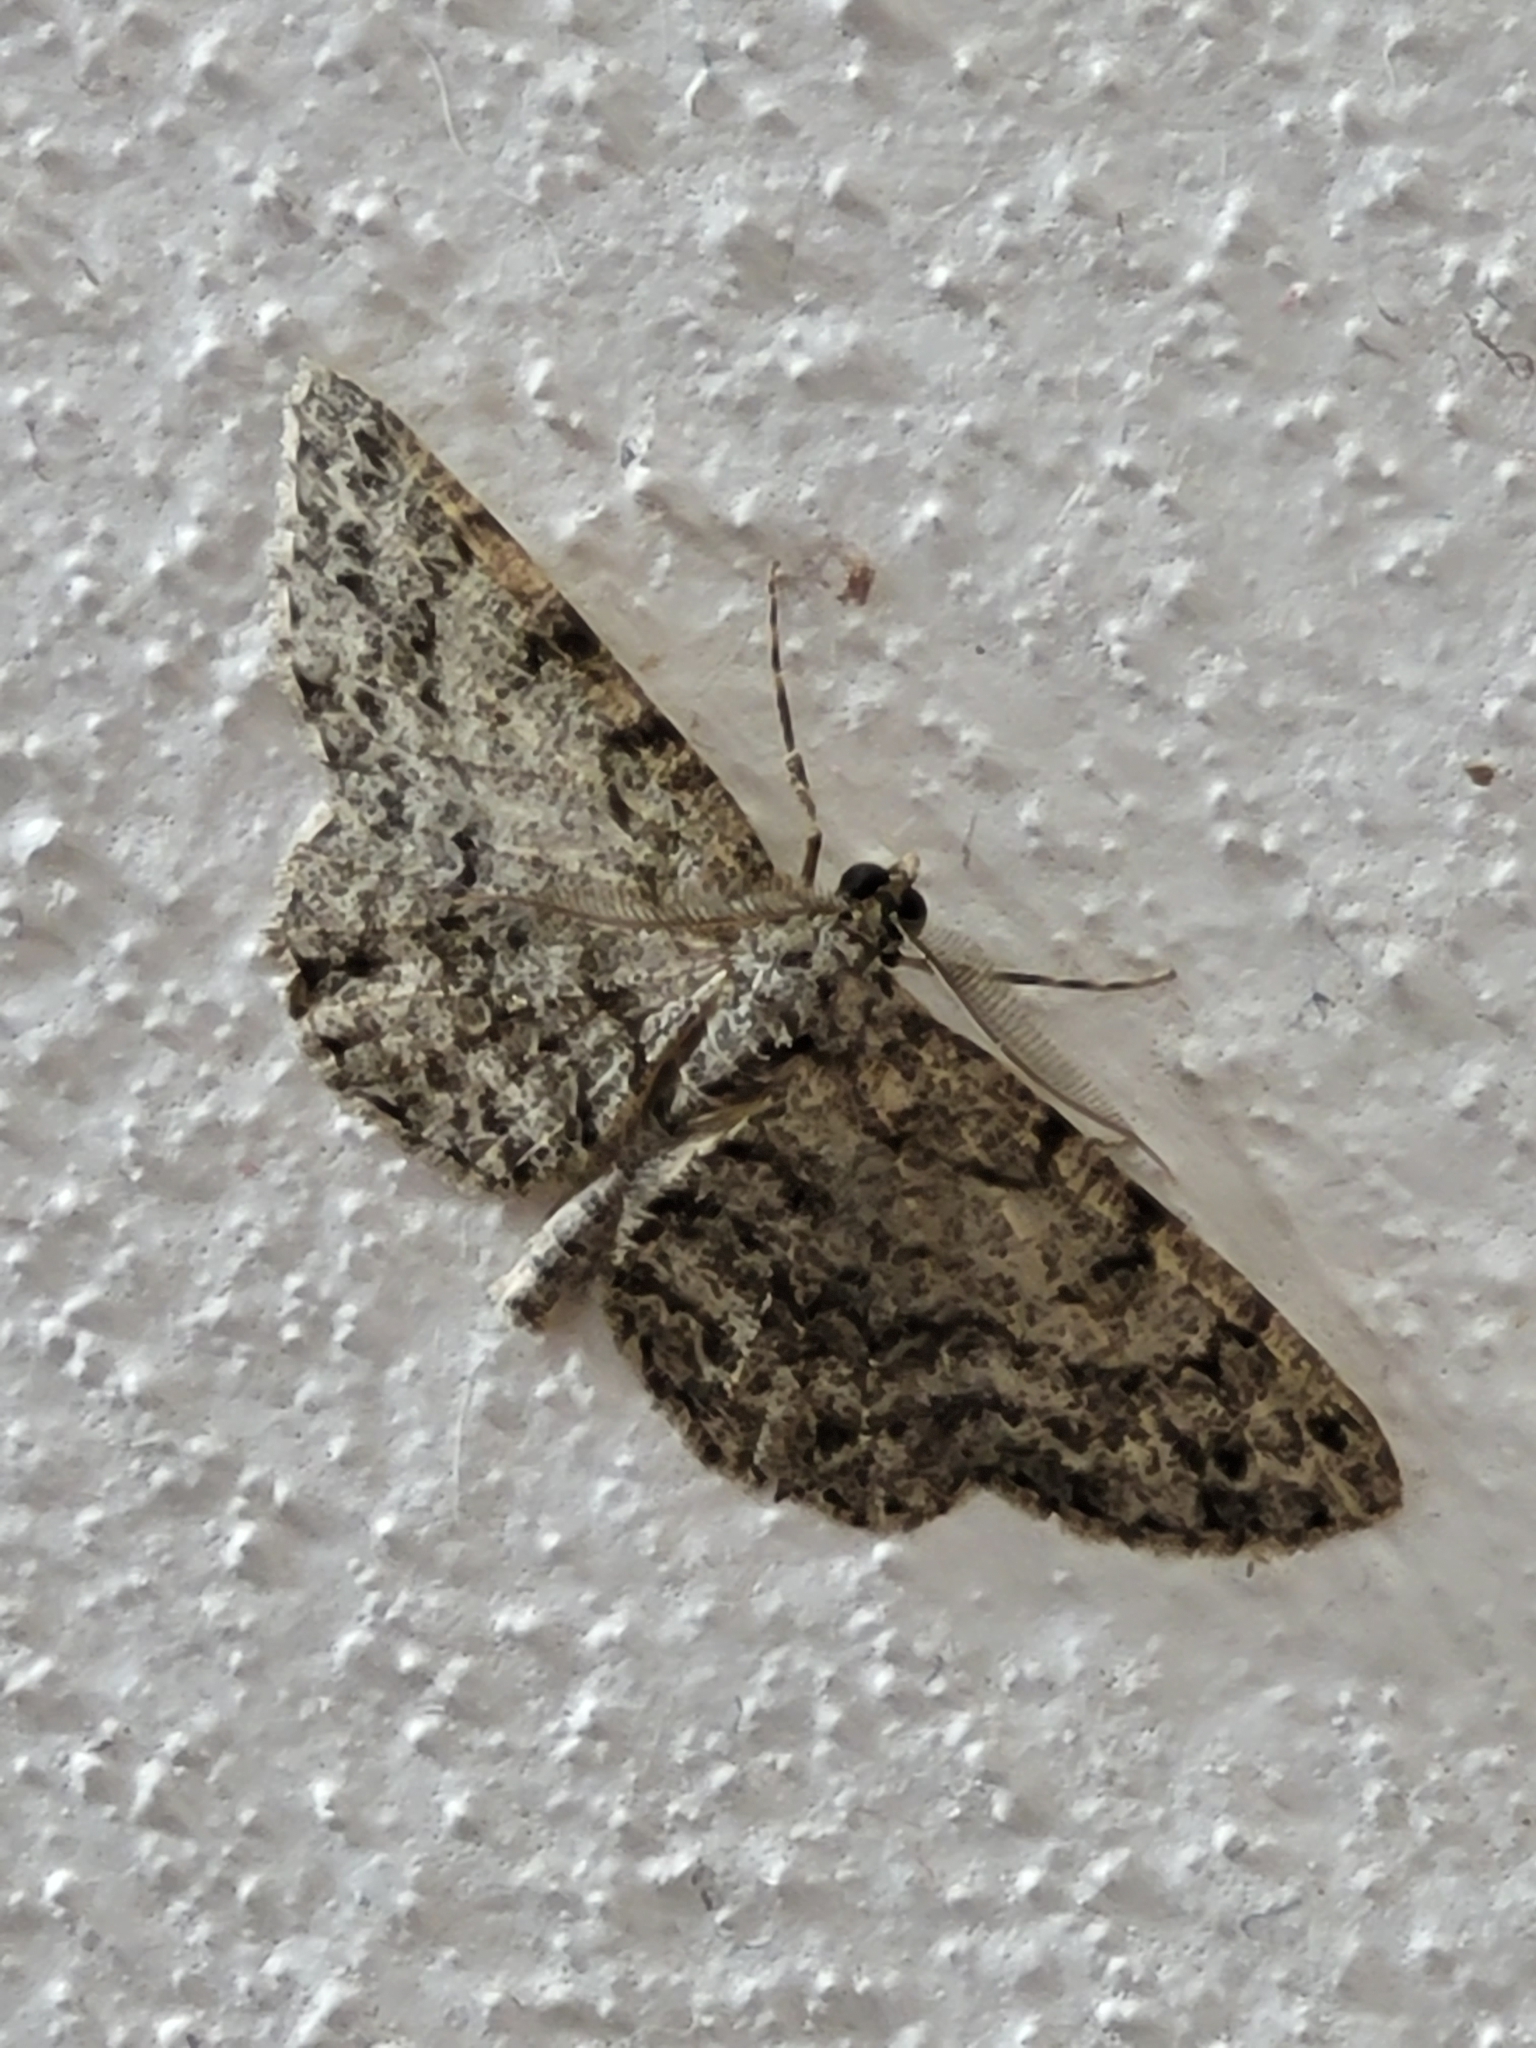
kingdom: Animalia
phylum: Arthropoda
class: Insecta
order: Lepidoptera
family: Geometridae
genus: Protoboarmia
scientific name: Protoboarmia porcelaria
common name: Porcelain gray
